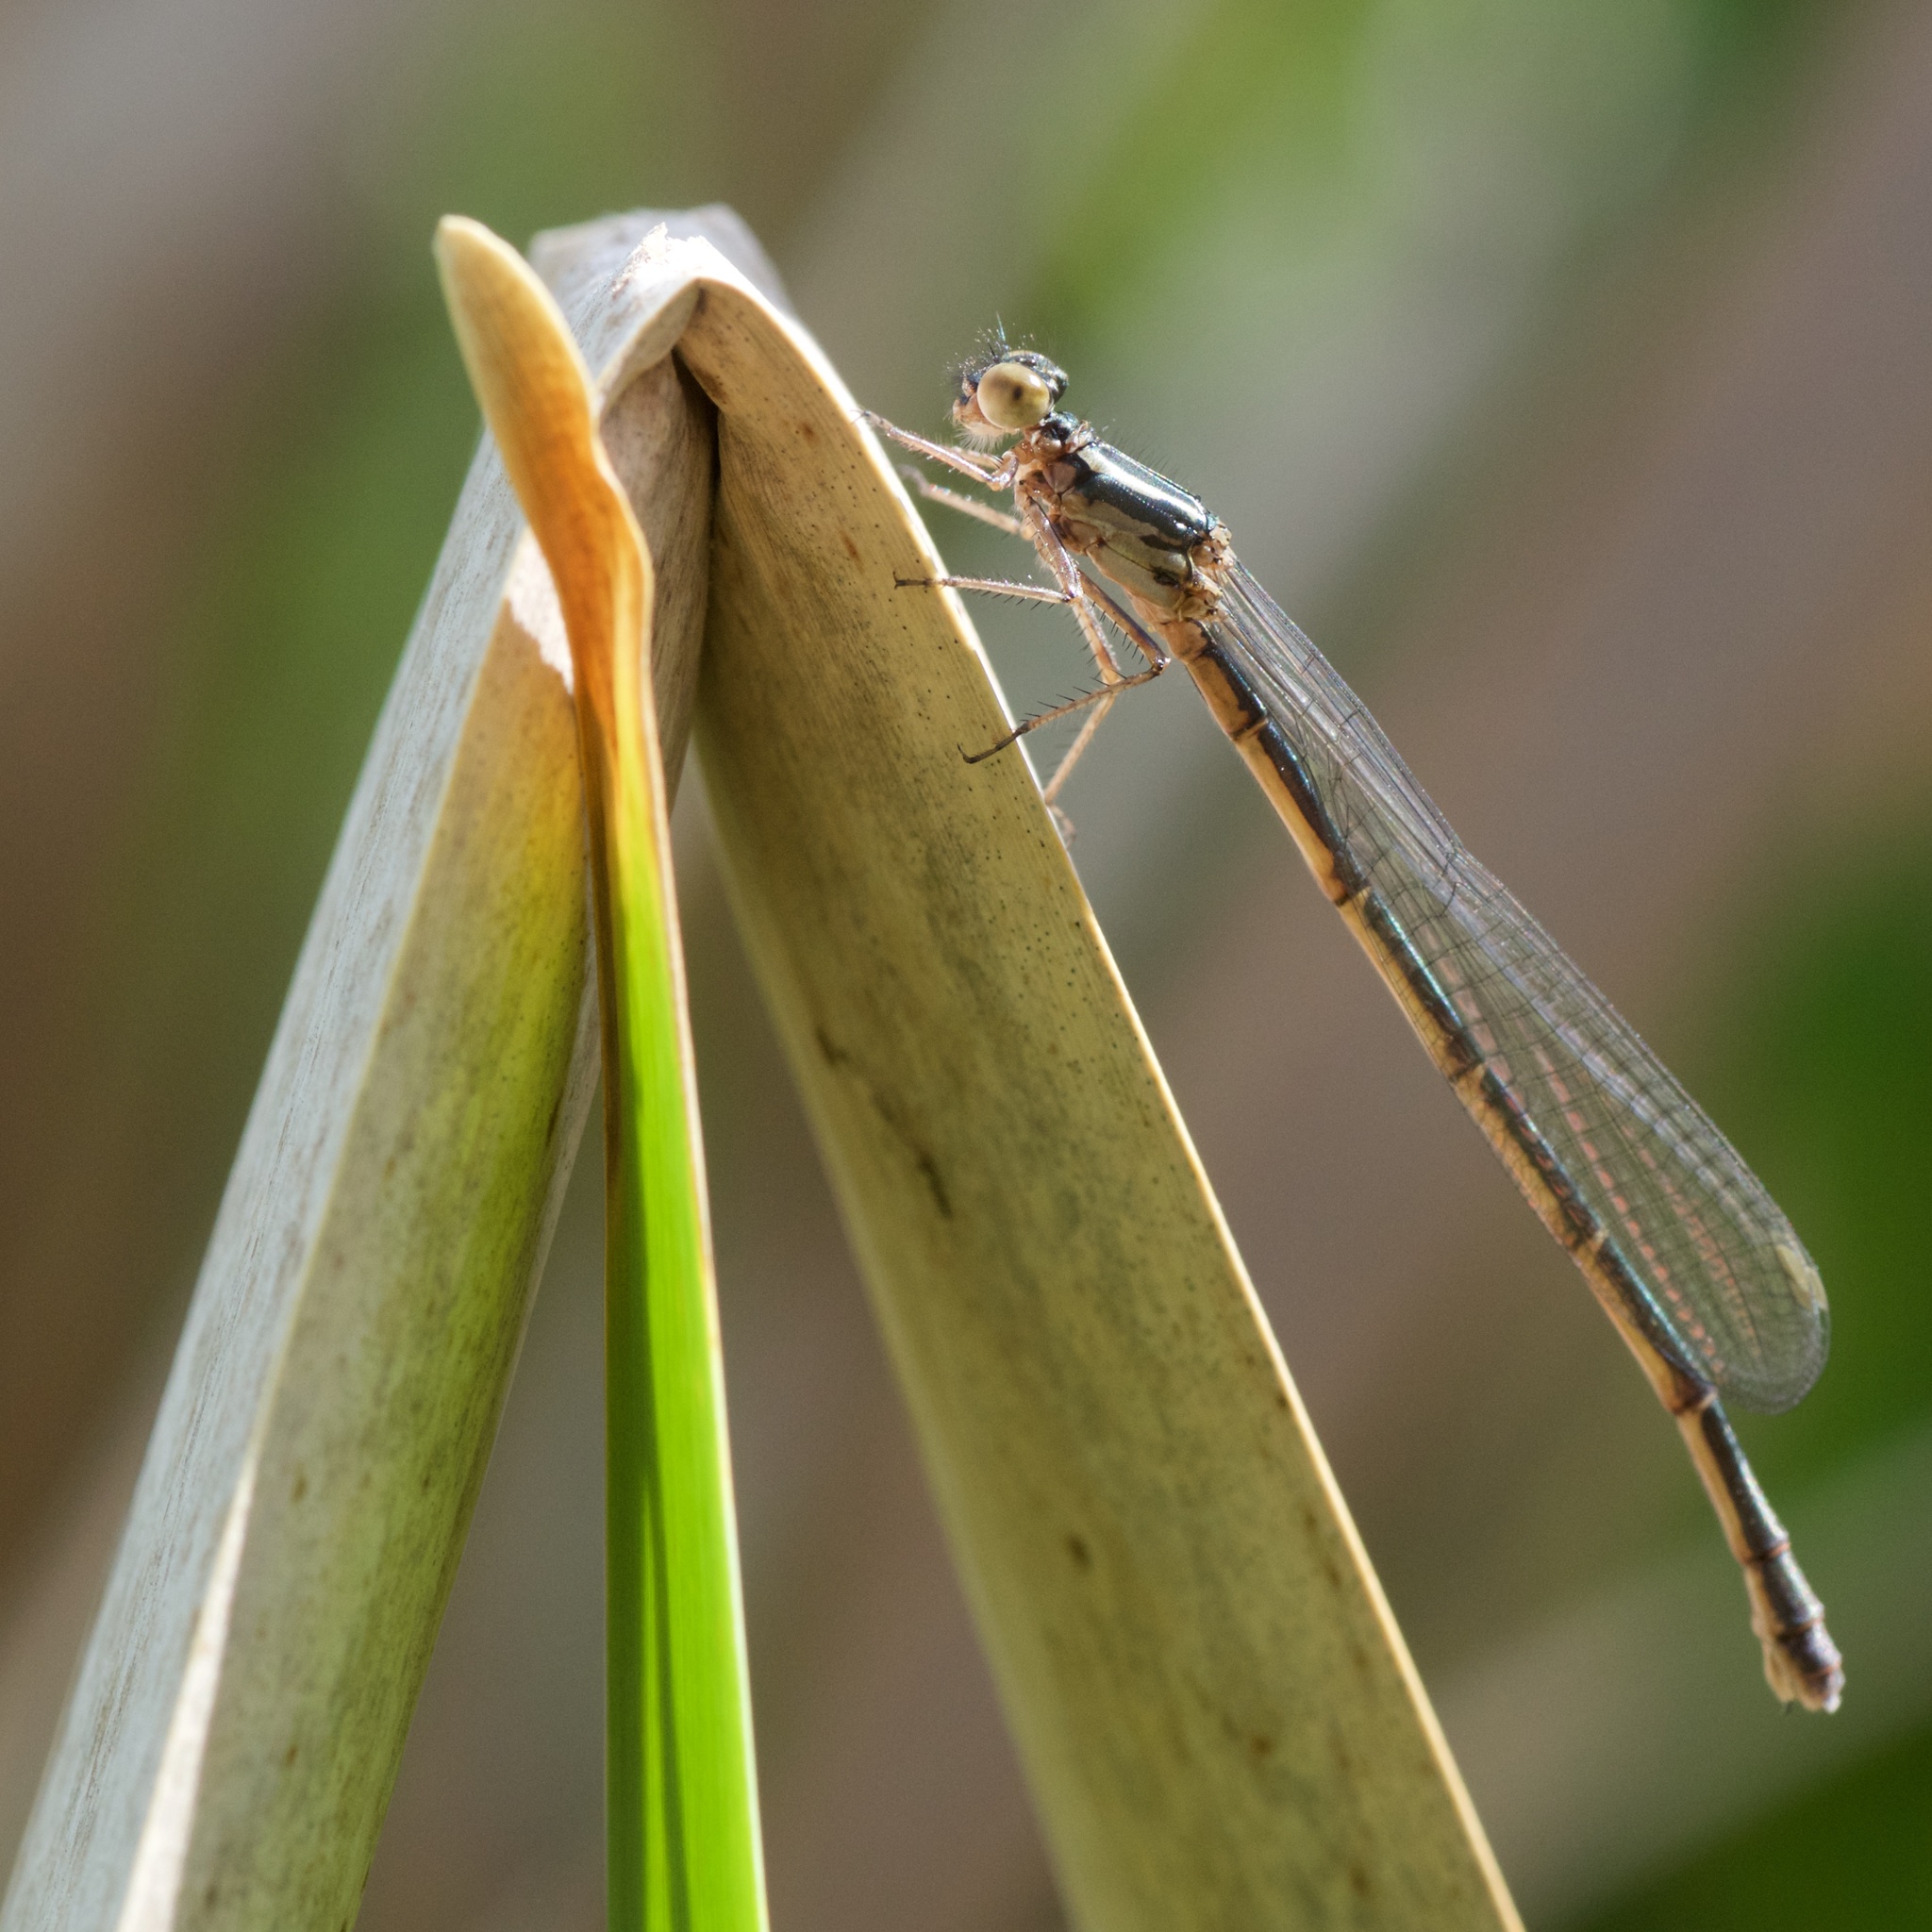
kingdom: Animalia
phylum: Arthropoda
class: Insecta
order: Odonata
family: Coenagrionidae
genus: Xanthocnemis
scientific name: Xanthocnemis zealandica
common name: Common redcoat damselfly
